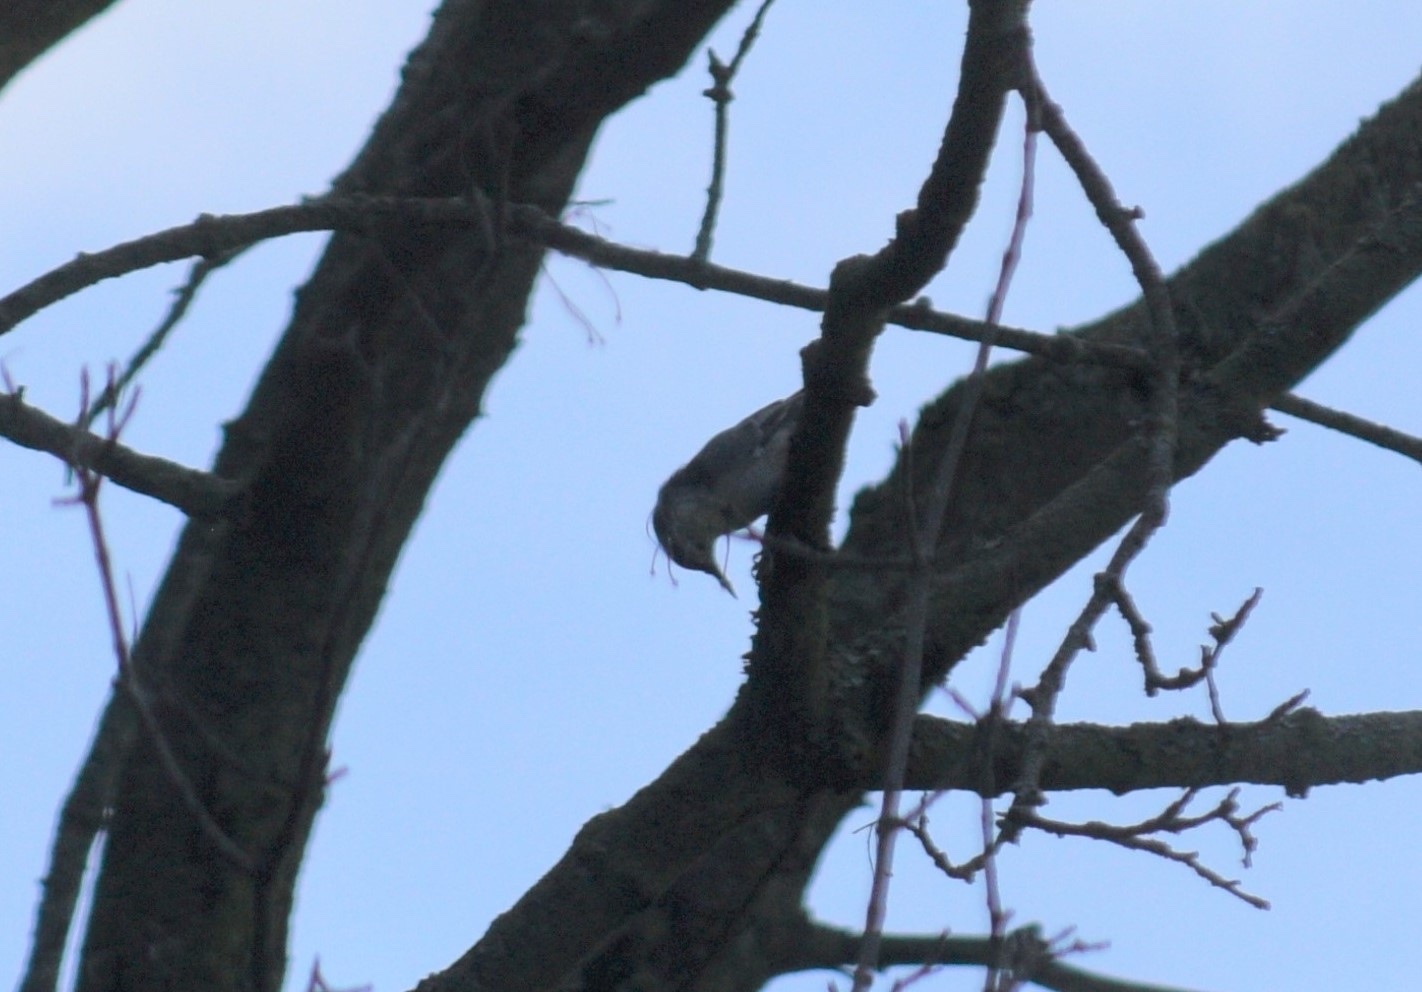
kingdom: Animalia
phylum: Chordata
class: Aves
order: Passeriformes
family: Sittidae
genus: Sitta
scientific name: Sitta carolinensis
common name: White-breasted nuthatch
